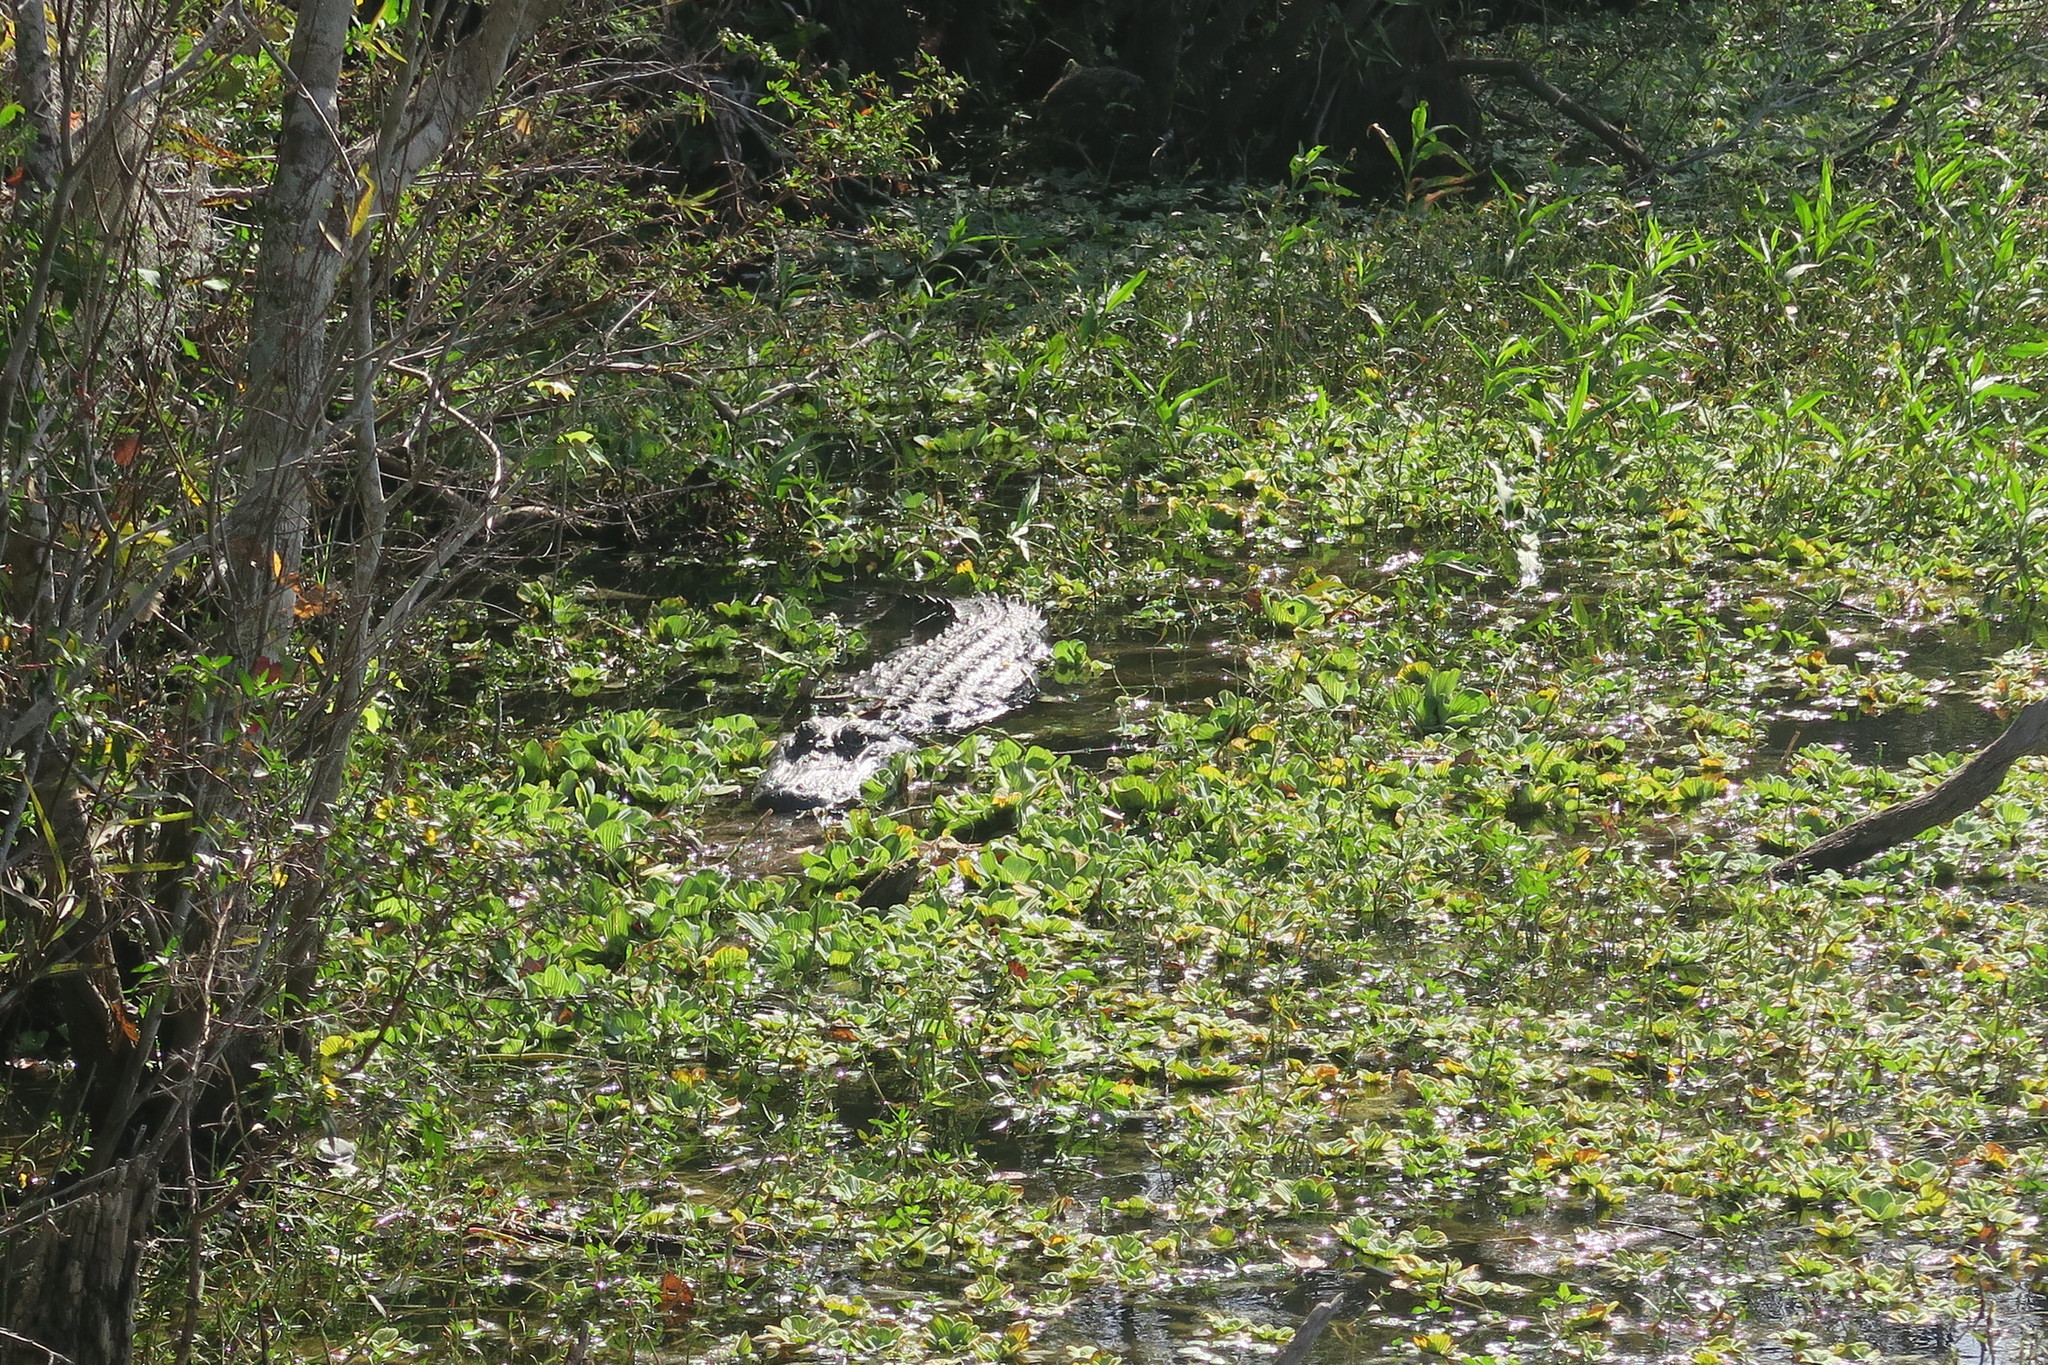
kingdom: Animalia
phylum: Chordata
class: Crocodylia
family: Alligatoridae
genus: Alligator
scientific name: Alligator mississippiensis
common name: American alligator
